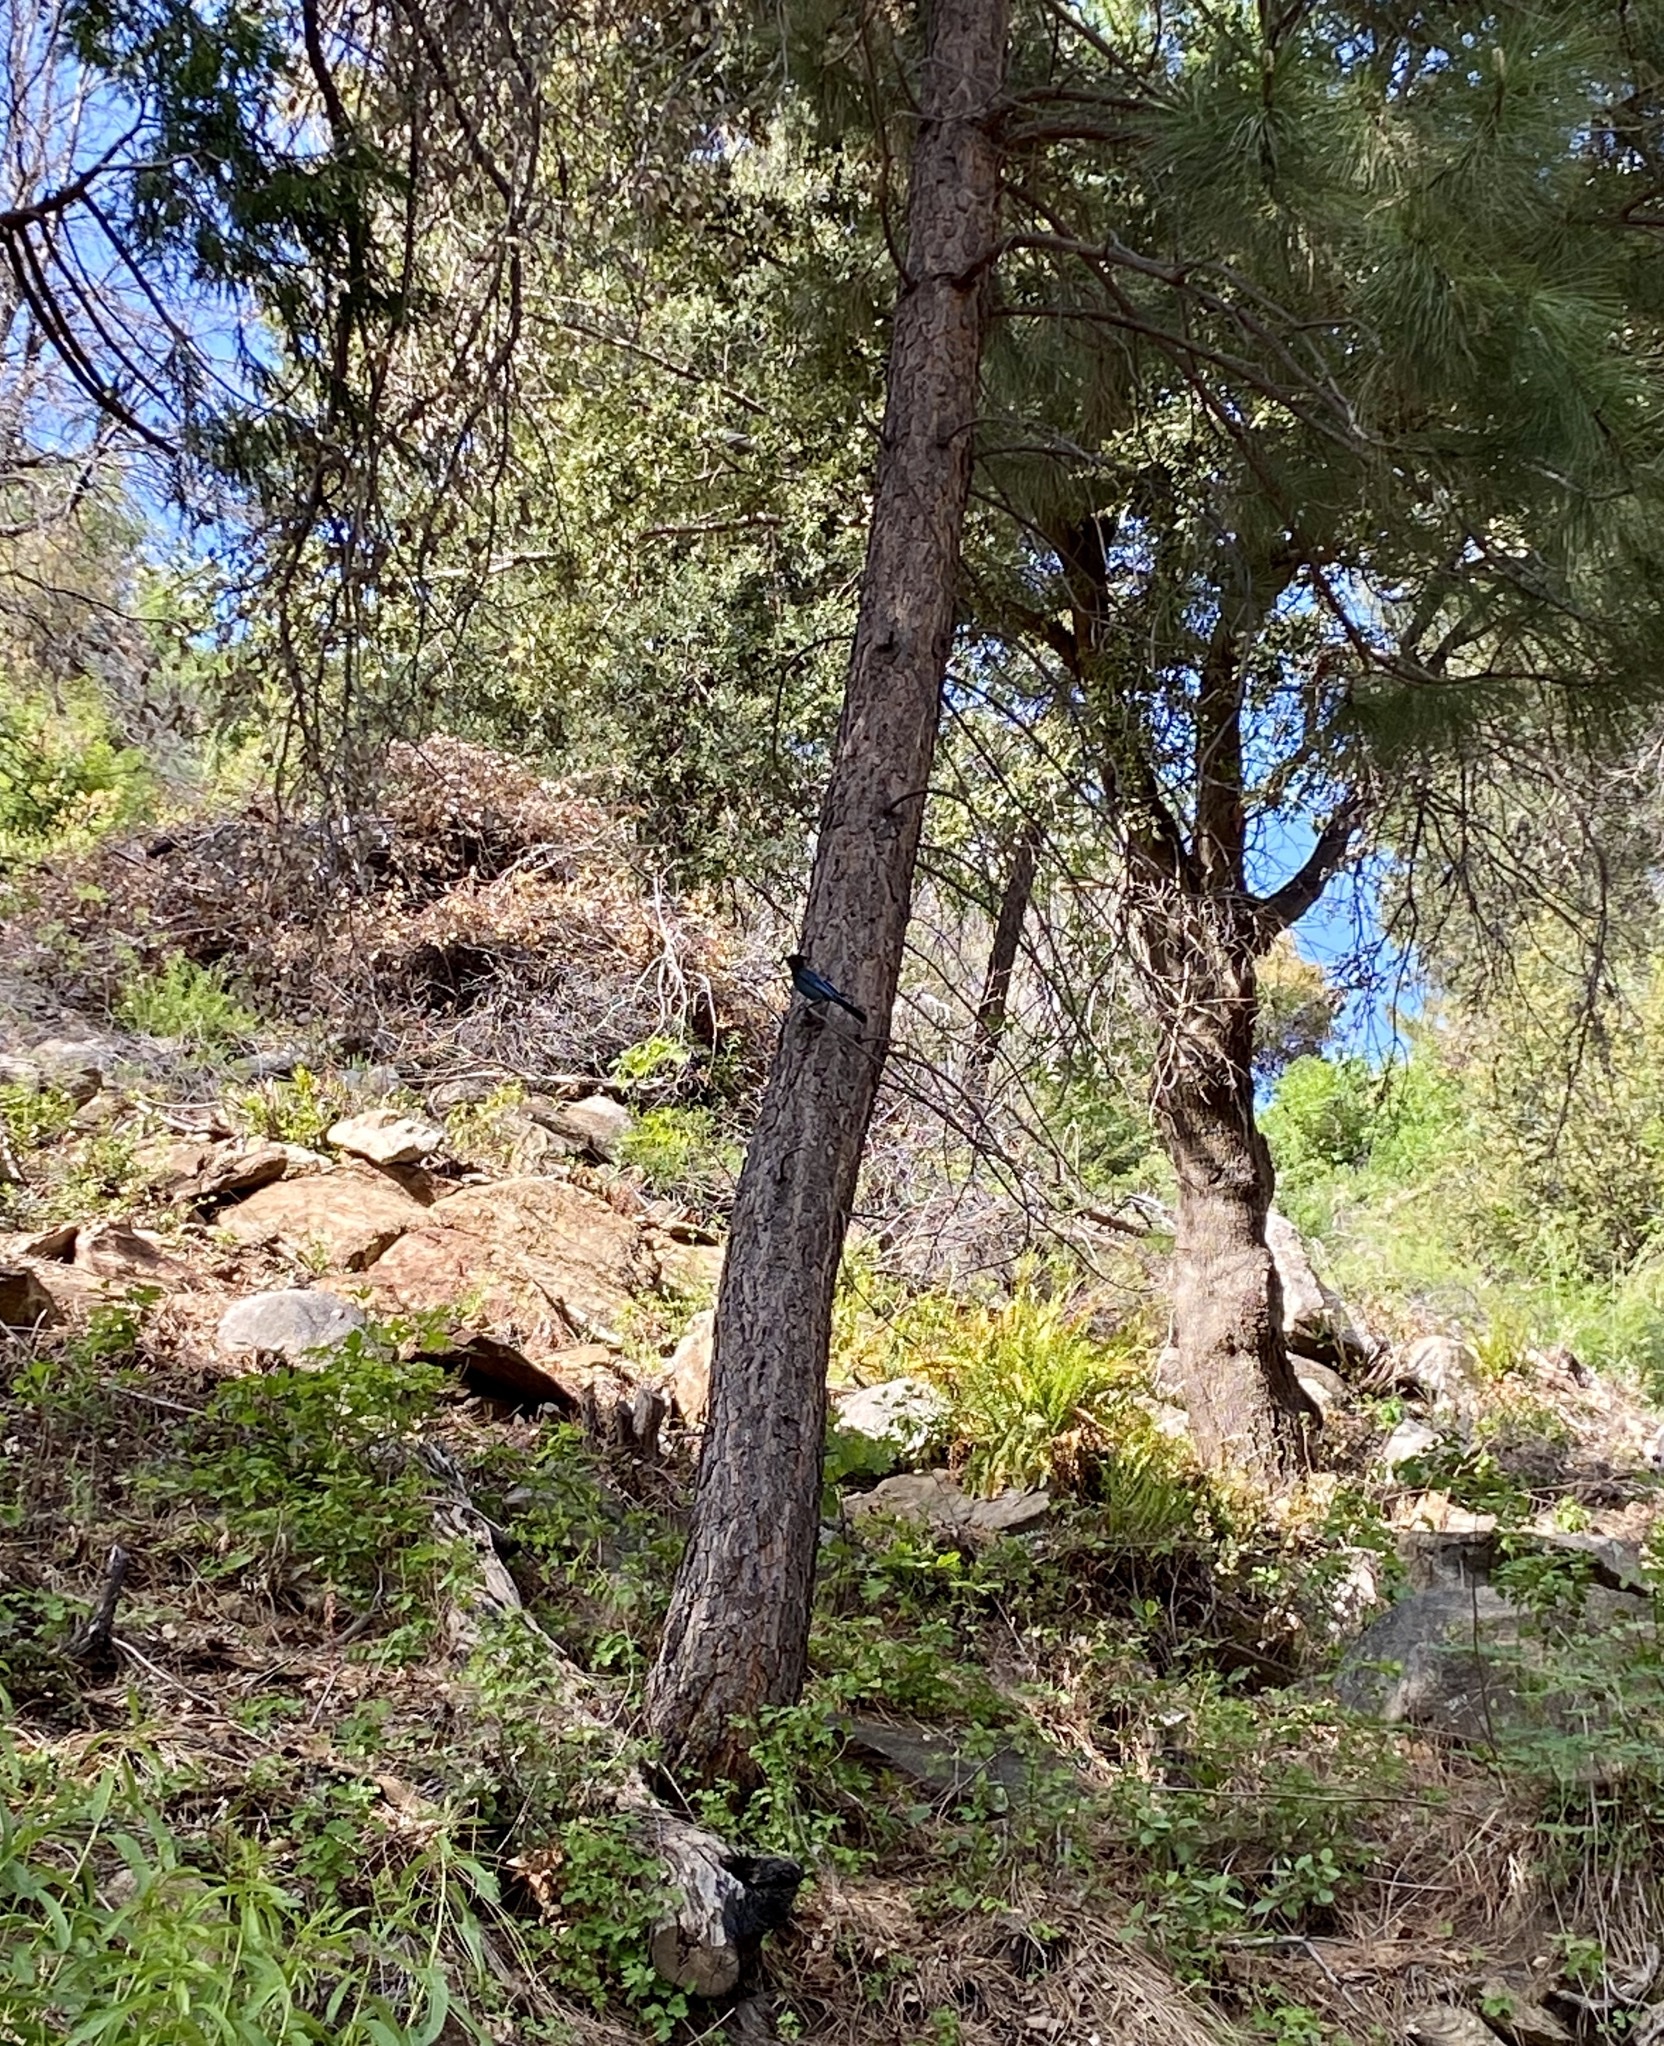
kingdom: Animalia
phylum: Chordata
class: Aves
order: Passeriformes
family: Corvidae
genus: Cyanocitta
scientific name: Cyanocitta stelleri
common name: Steller's jay
